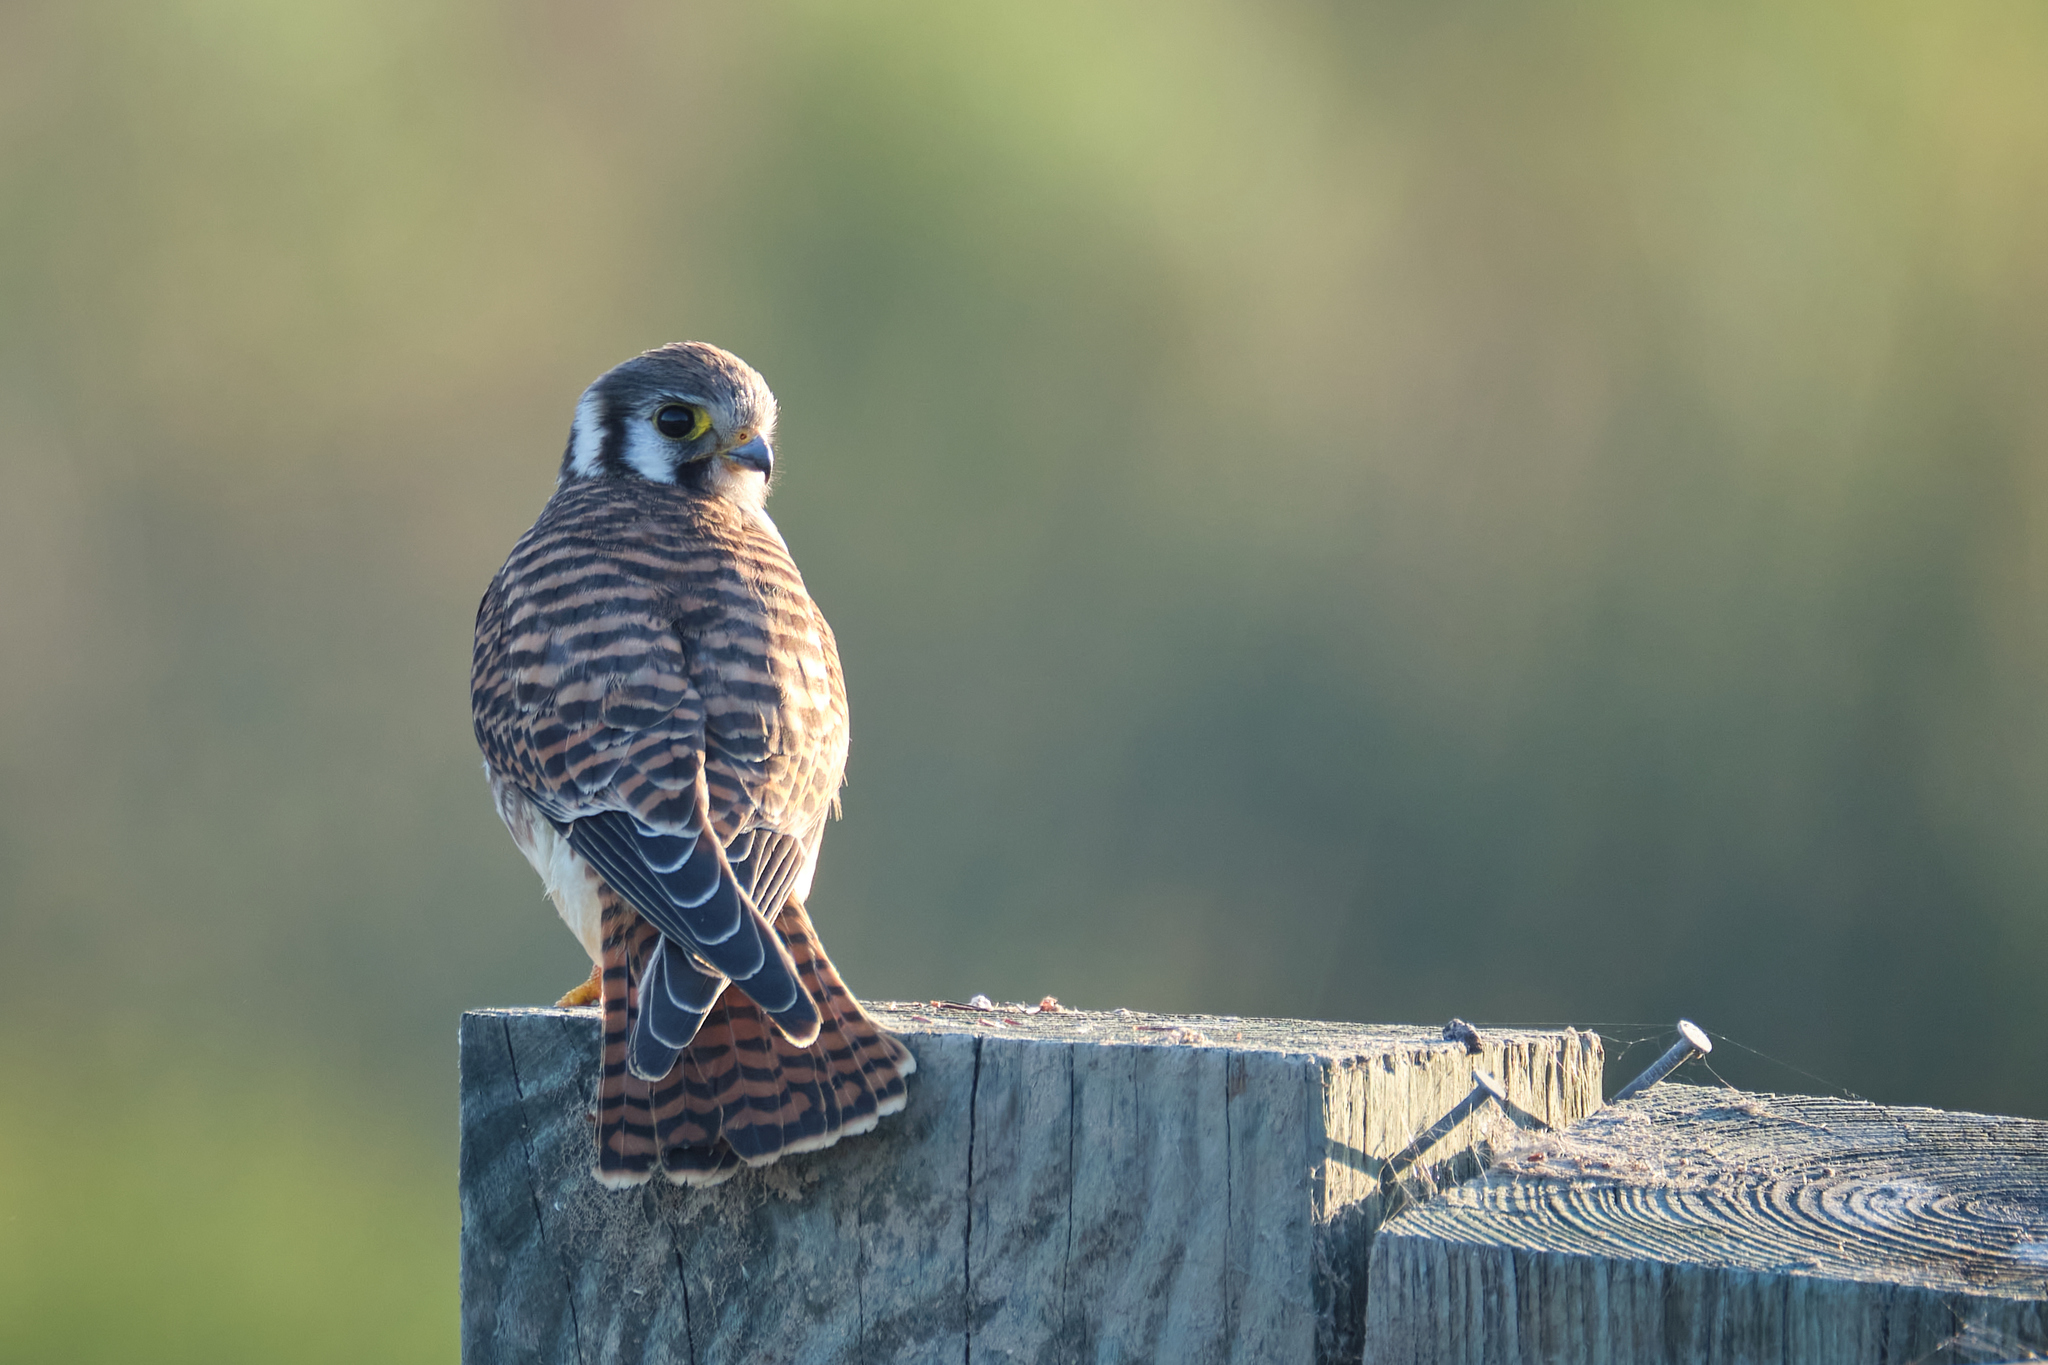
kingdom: Animalia
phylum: Chordata
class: Aves
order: Falconiformes
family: Falconidae
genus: Falco
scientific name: Falco sparverius
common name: American kestrel
